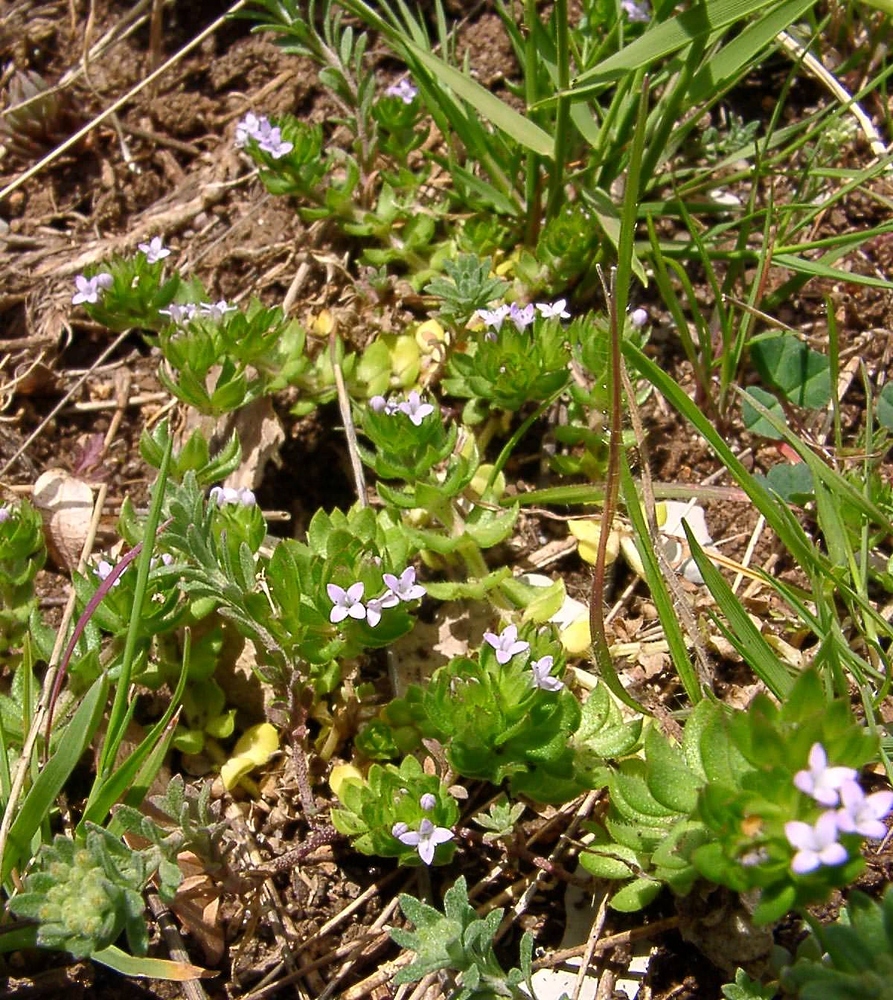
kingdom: Plantae
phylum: Tracheophyta
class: Magnoliopsida
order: Gentianales
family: Rubiaceae
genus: Sherardia
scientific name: Sherardia arvensis
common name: Field madder
